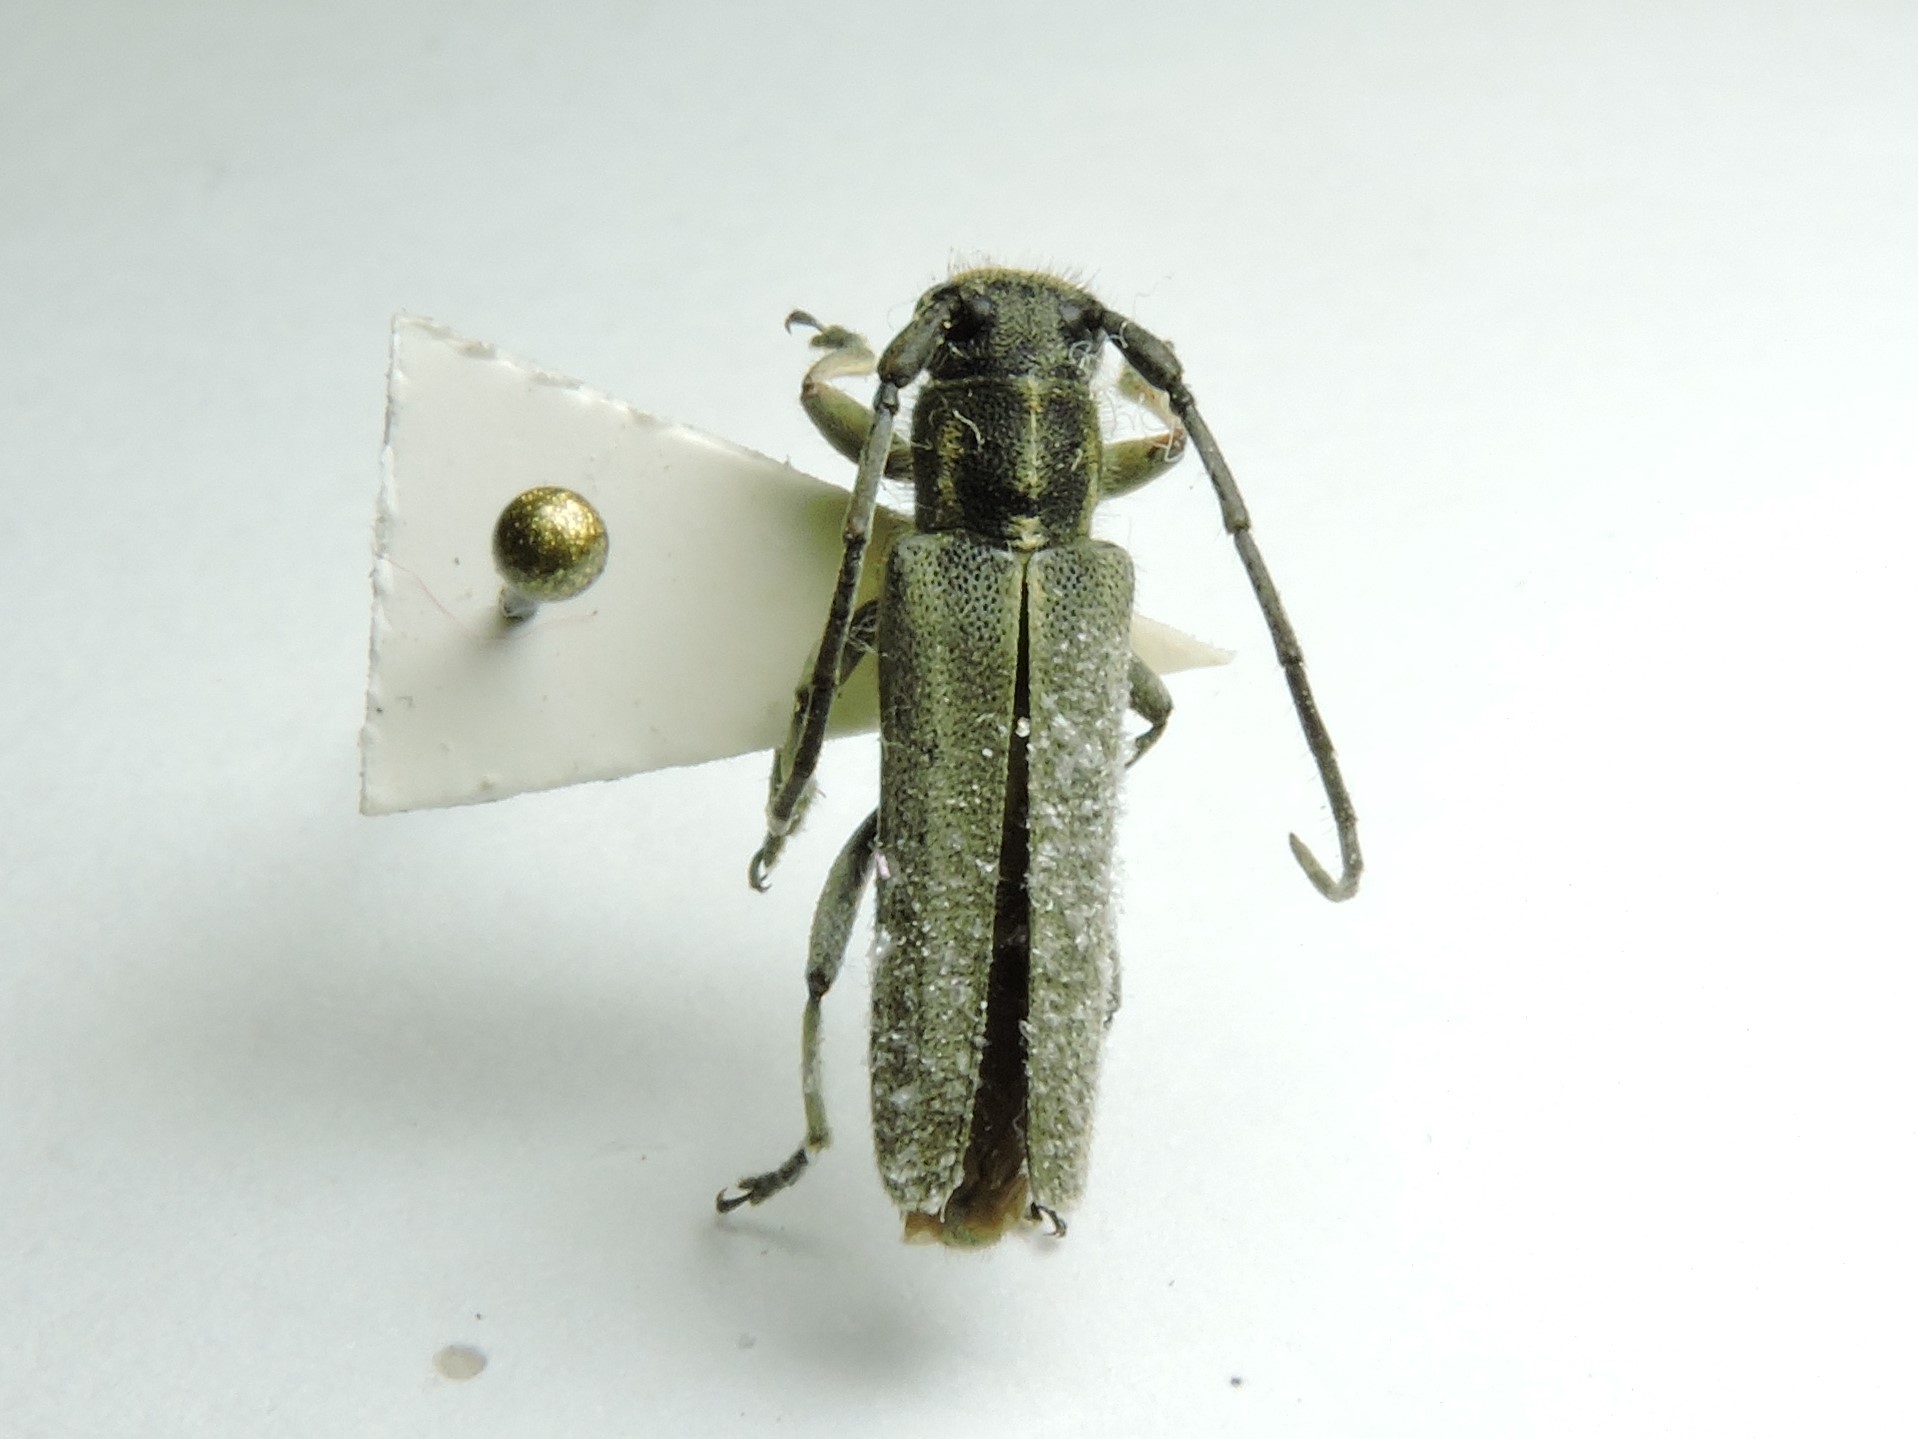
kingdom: Animalia
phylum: Arthropoda
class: Insecta
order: Coleoptera
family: Cerambycidae
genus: Phytoecia
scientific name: Phytoecia nigricornis
